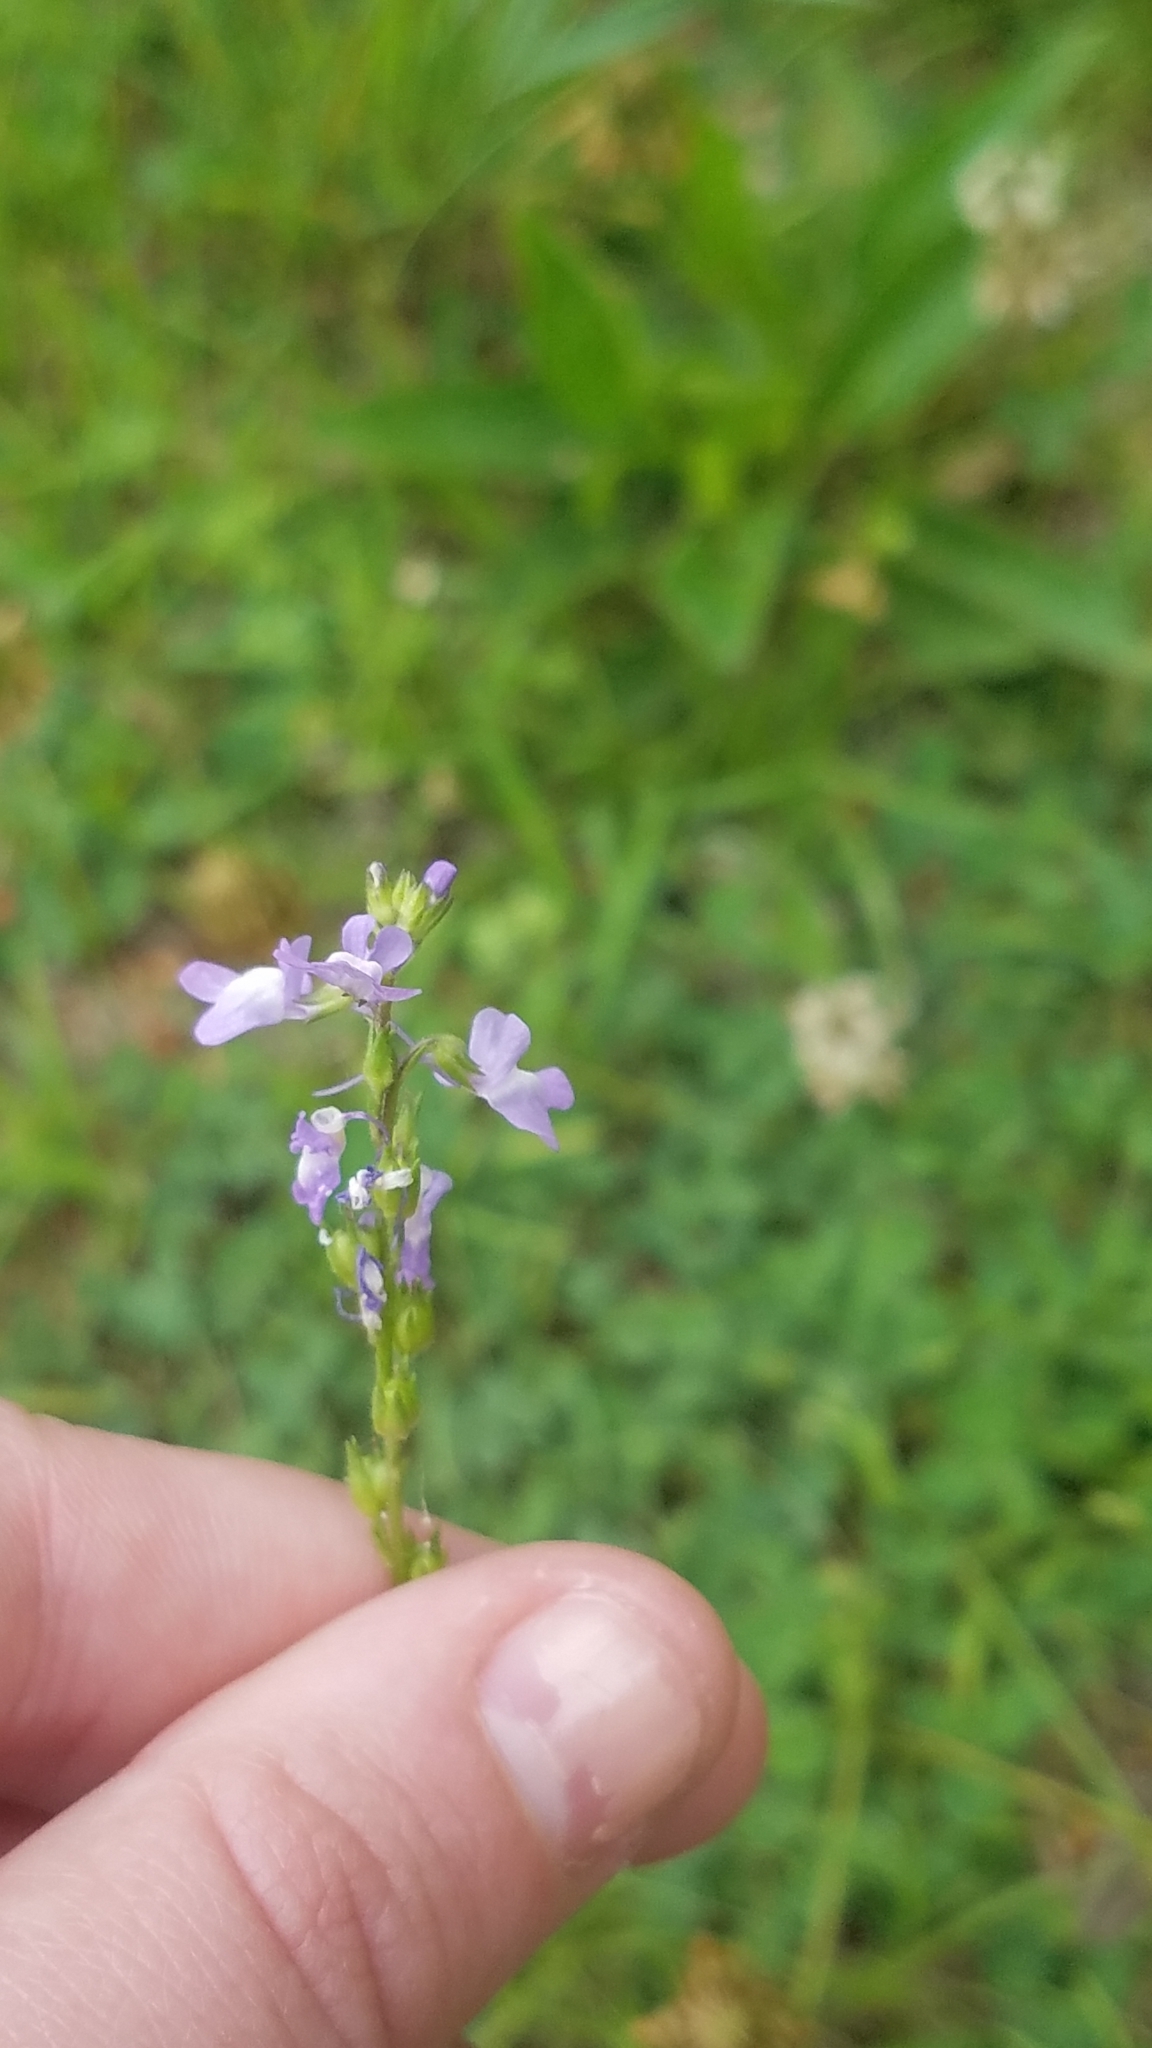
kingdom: Plantae
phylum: Tracheophyta
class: Magnoliopsida
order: Lamiales
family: Plantaginaceae
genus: Nuttallanthus
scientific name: Nuttallanthus canadensis
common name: Blue toadflax
